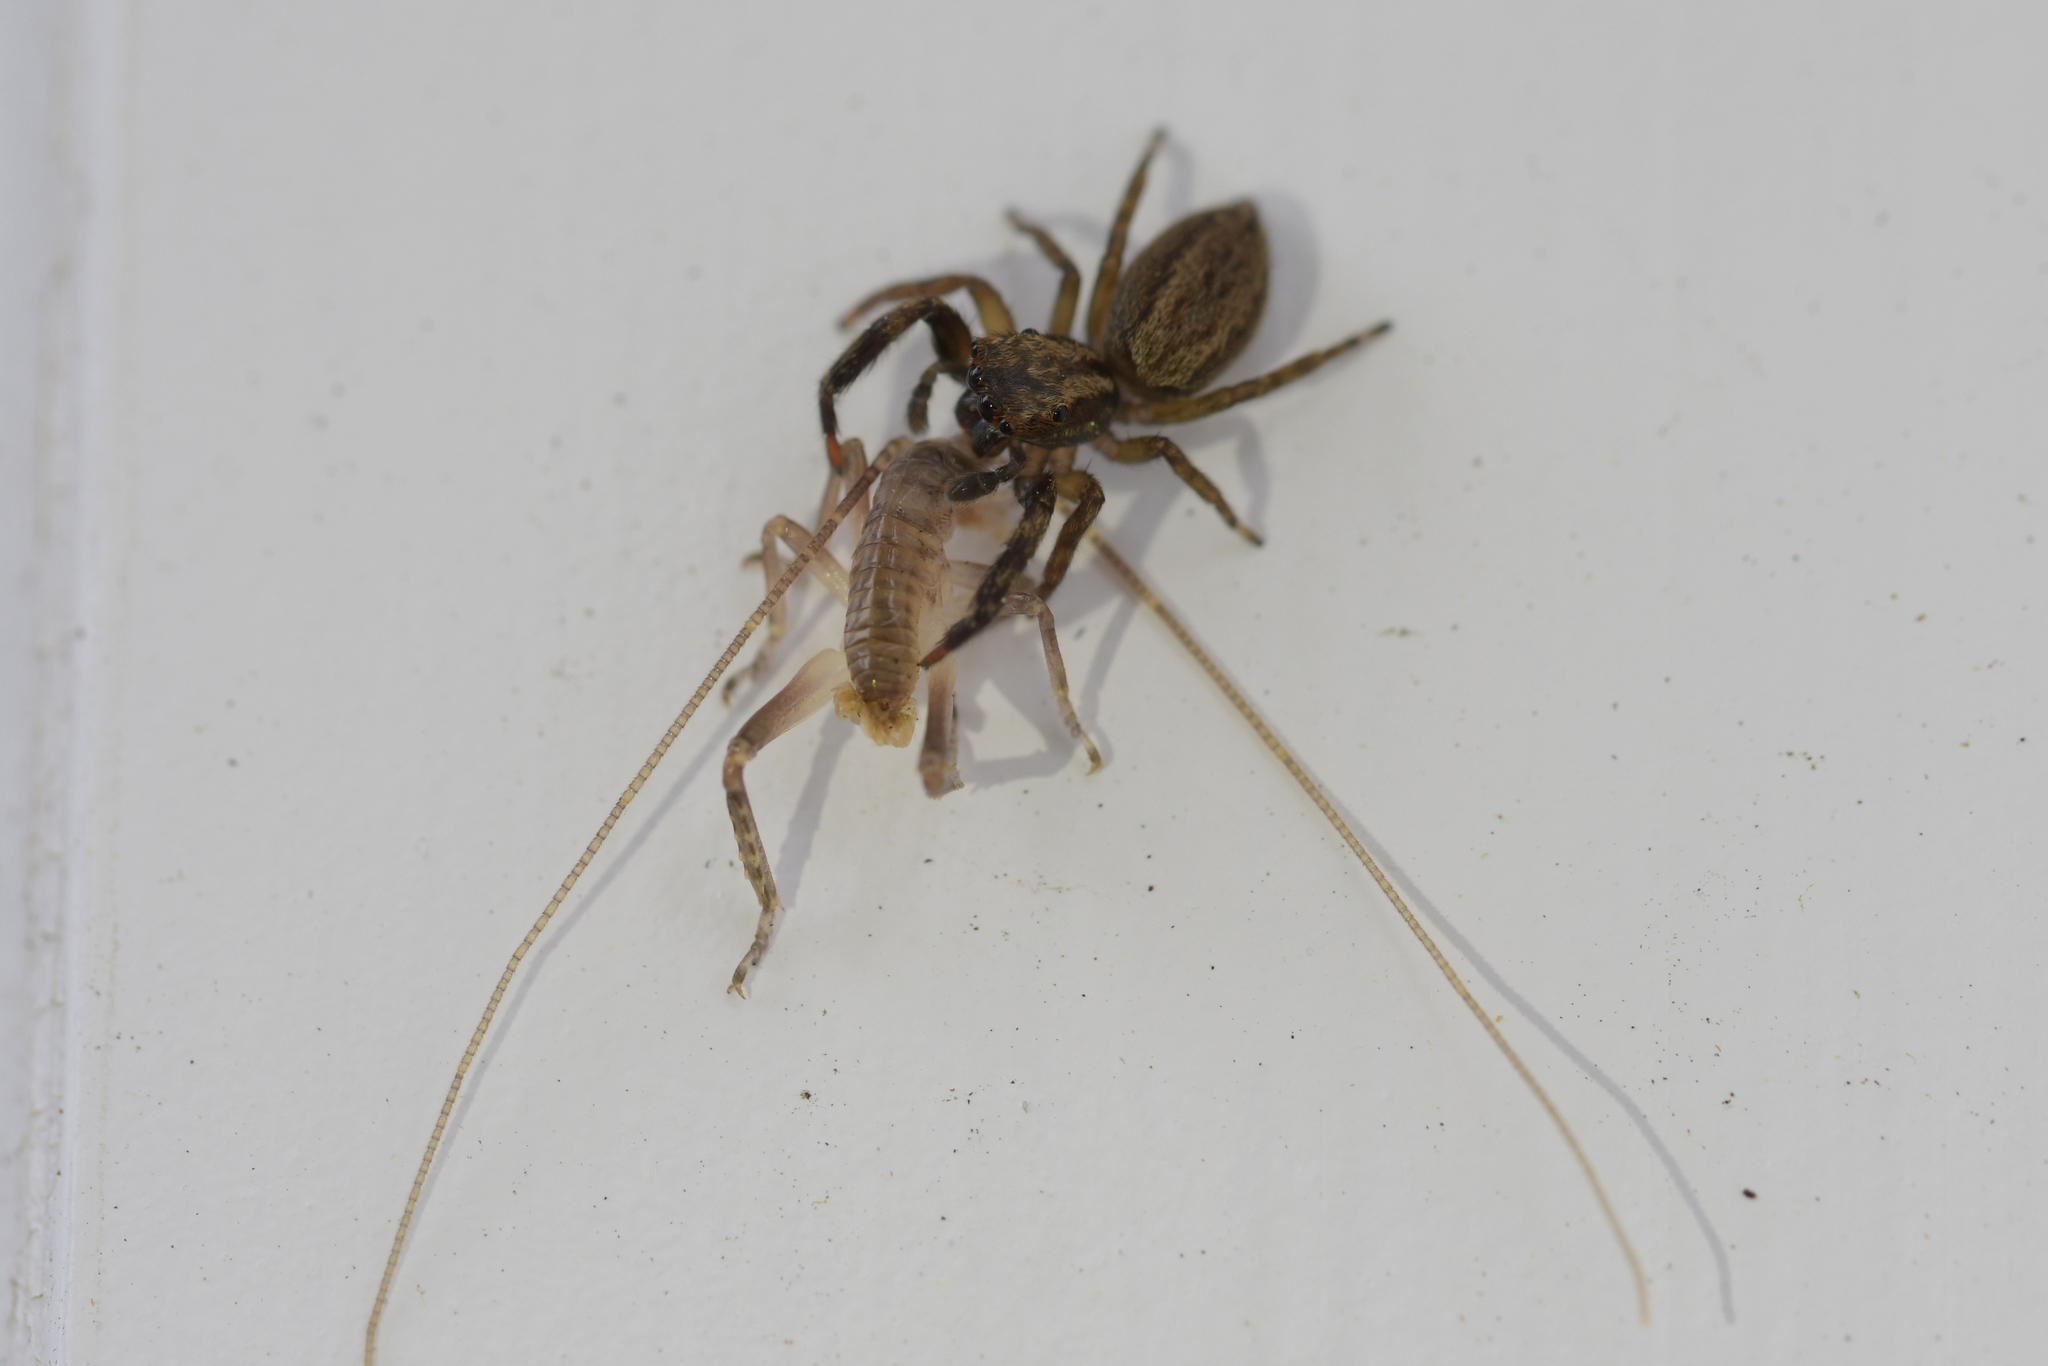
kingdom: Animalia
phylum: Arthropoda
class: Arachnida
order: Araneae
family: Salticidae
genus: Trite
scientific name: Trite auricoma
